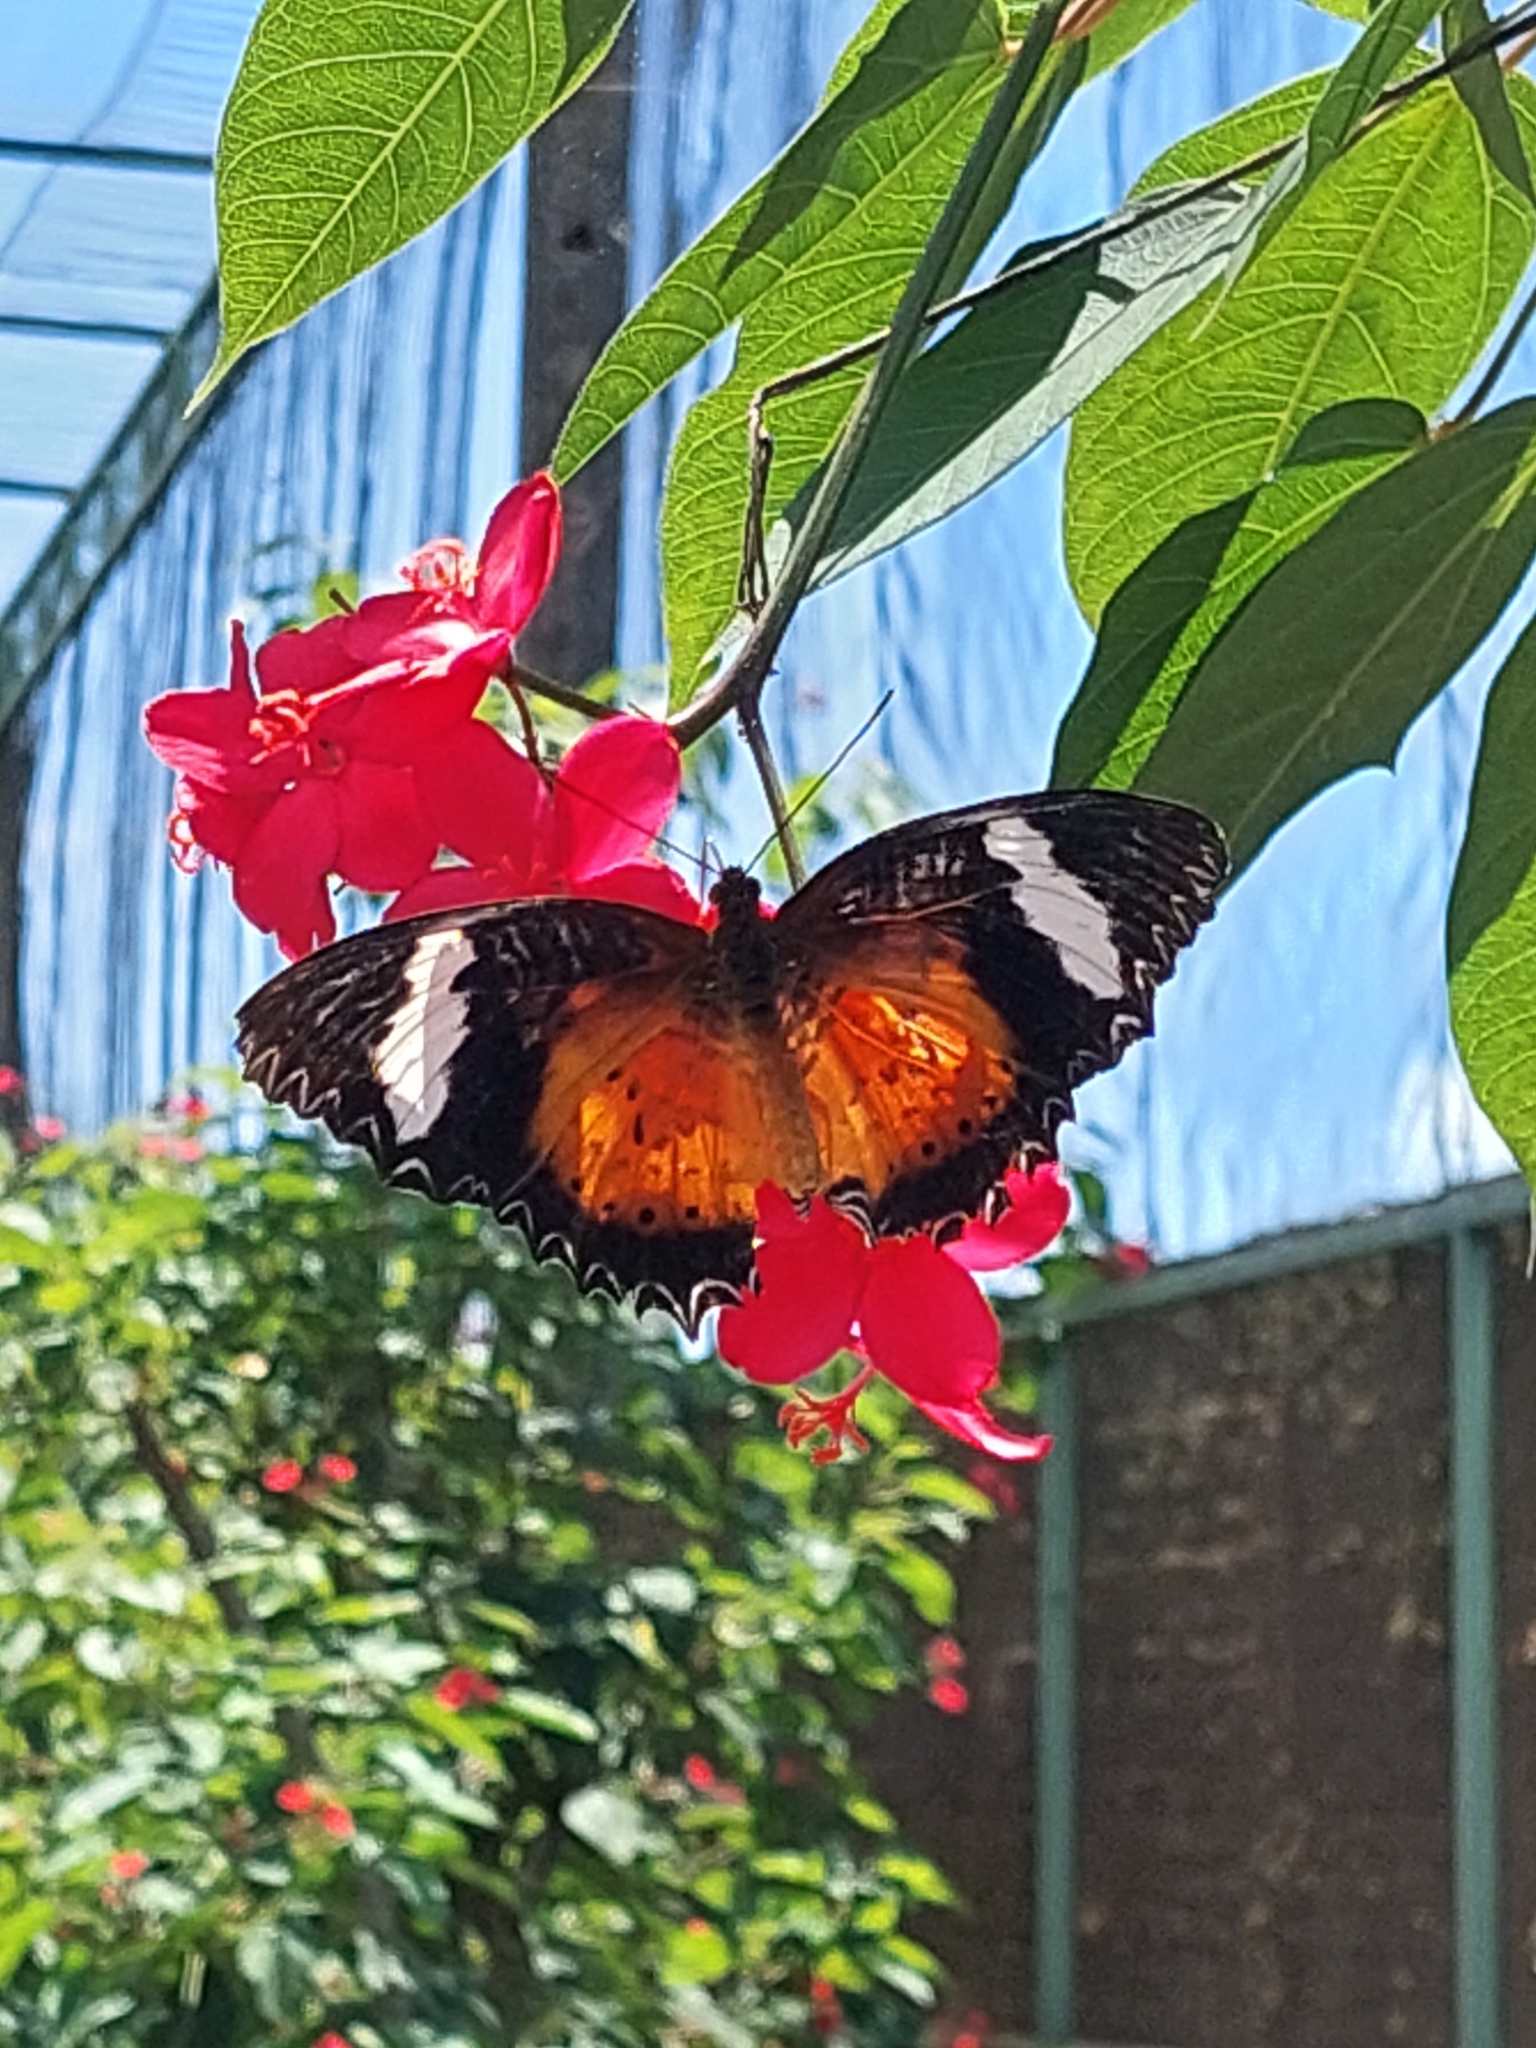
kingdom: Animalia
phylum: Arthropoda
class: Insecta
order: Lepidoptera
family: Nymphalidae
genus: Cethosia
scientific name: Cethosia hypsea
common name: Malayan lacewing butterfly
